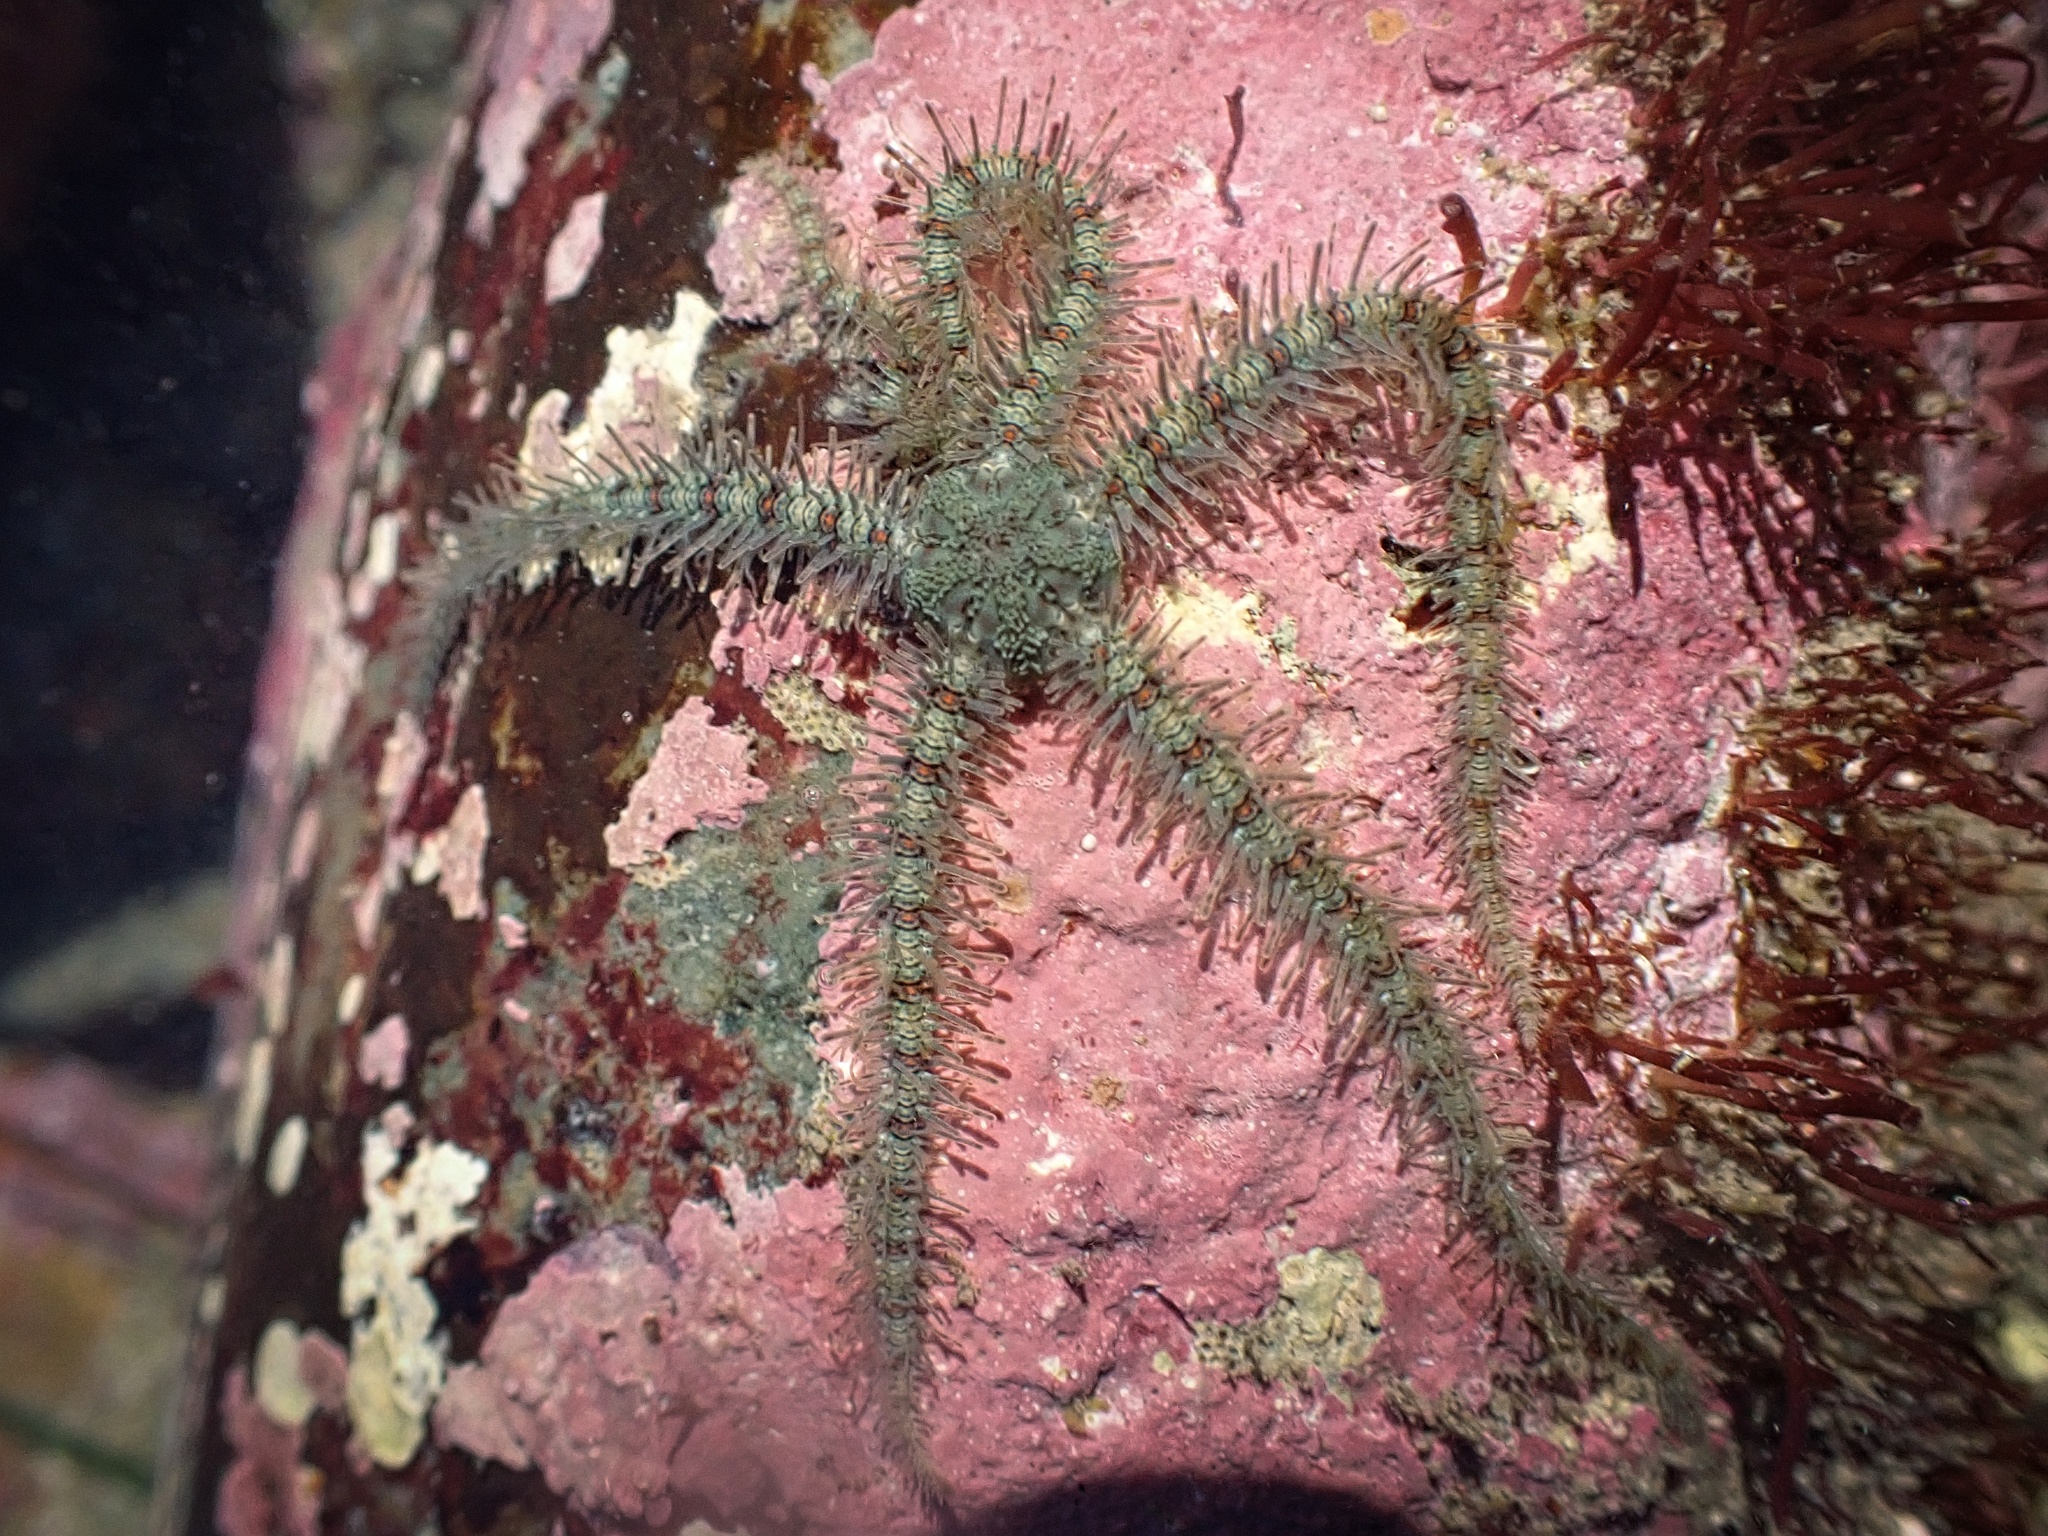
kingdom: Animalia
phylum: Echinodermata
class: Ophiuroidea
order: Amphilepidida
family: Ophiotrichidae
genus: Ophiothrix
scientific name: Ophiothrix rudis
